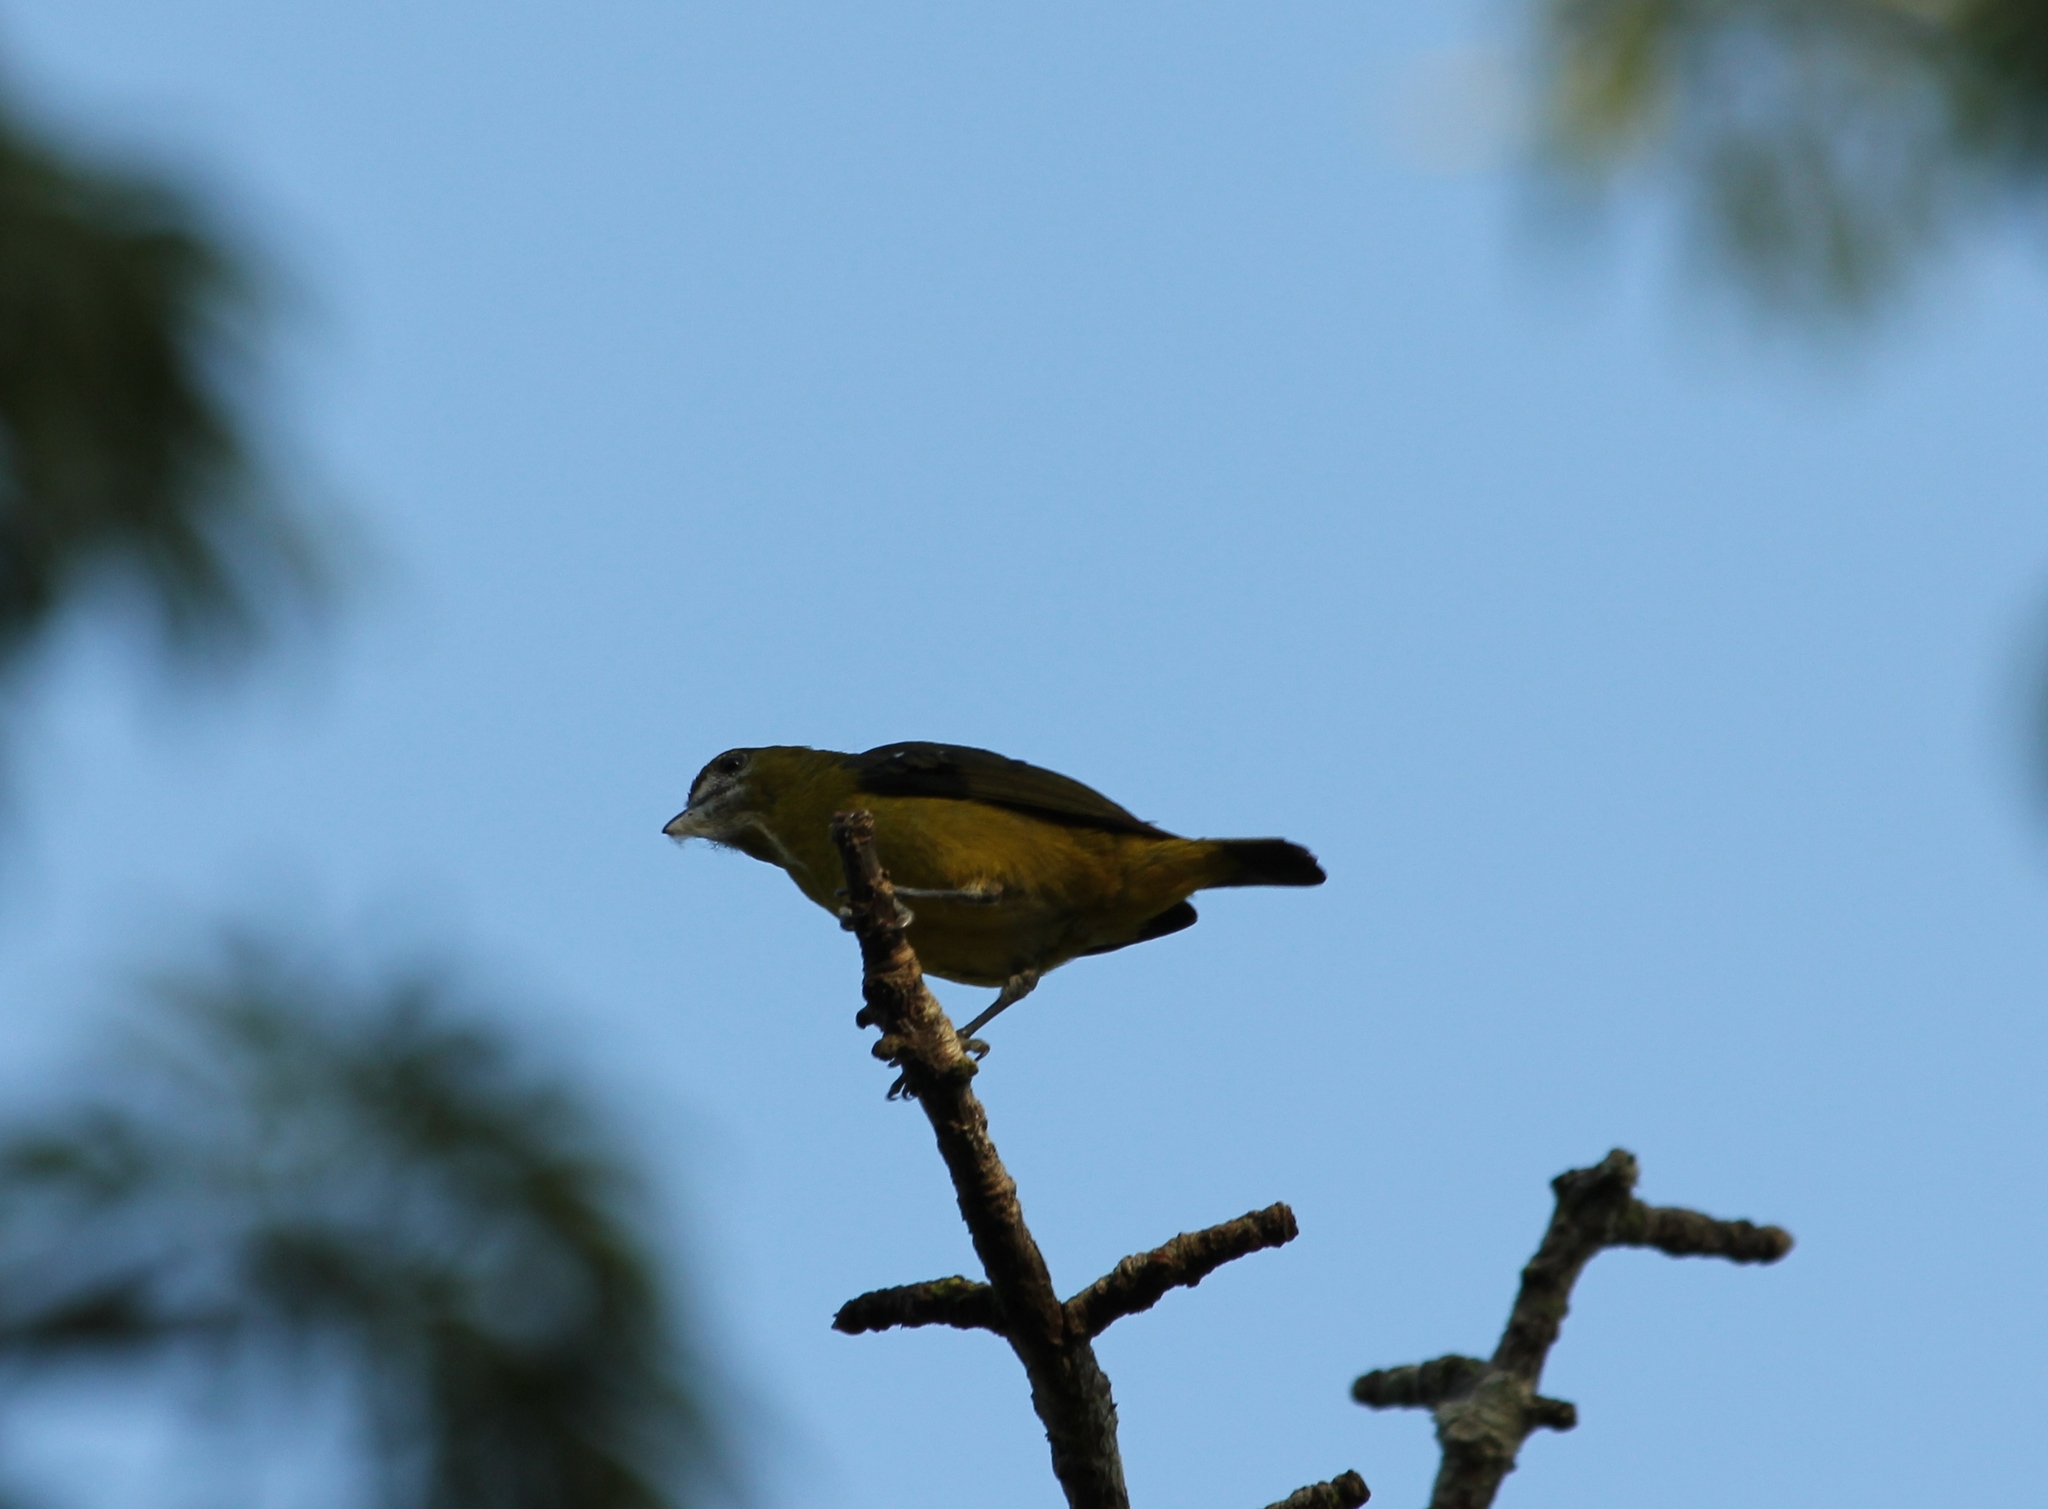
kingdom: Animalia
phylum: Chordata
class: Aves
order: Passeriformes
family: Fringillidae
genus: Euphonia
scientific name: Euphonia chrysopasta
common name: White-lored euphonia
